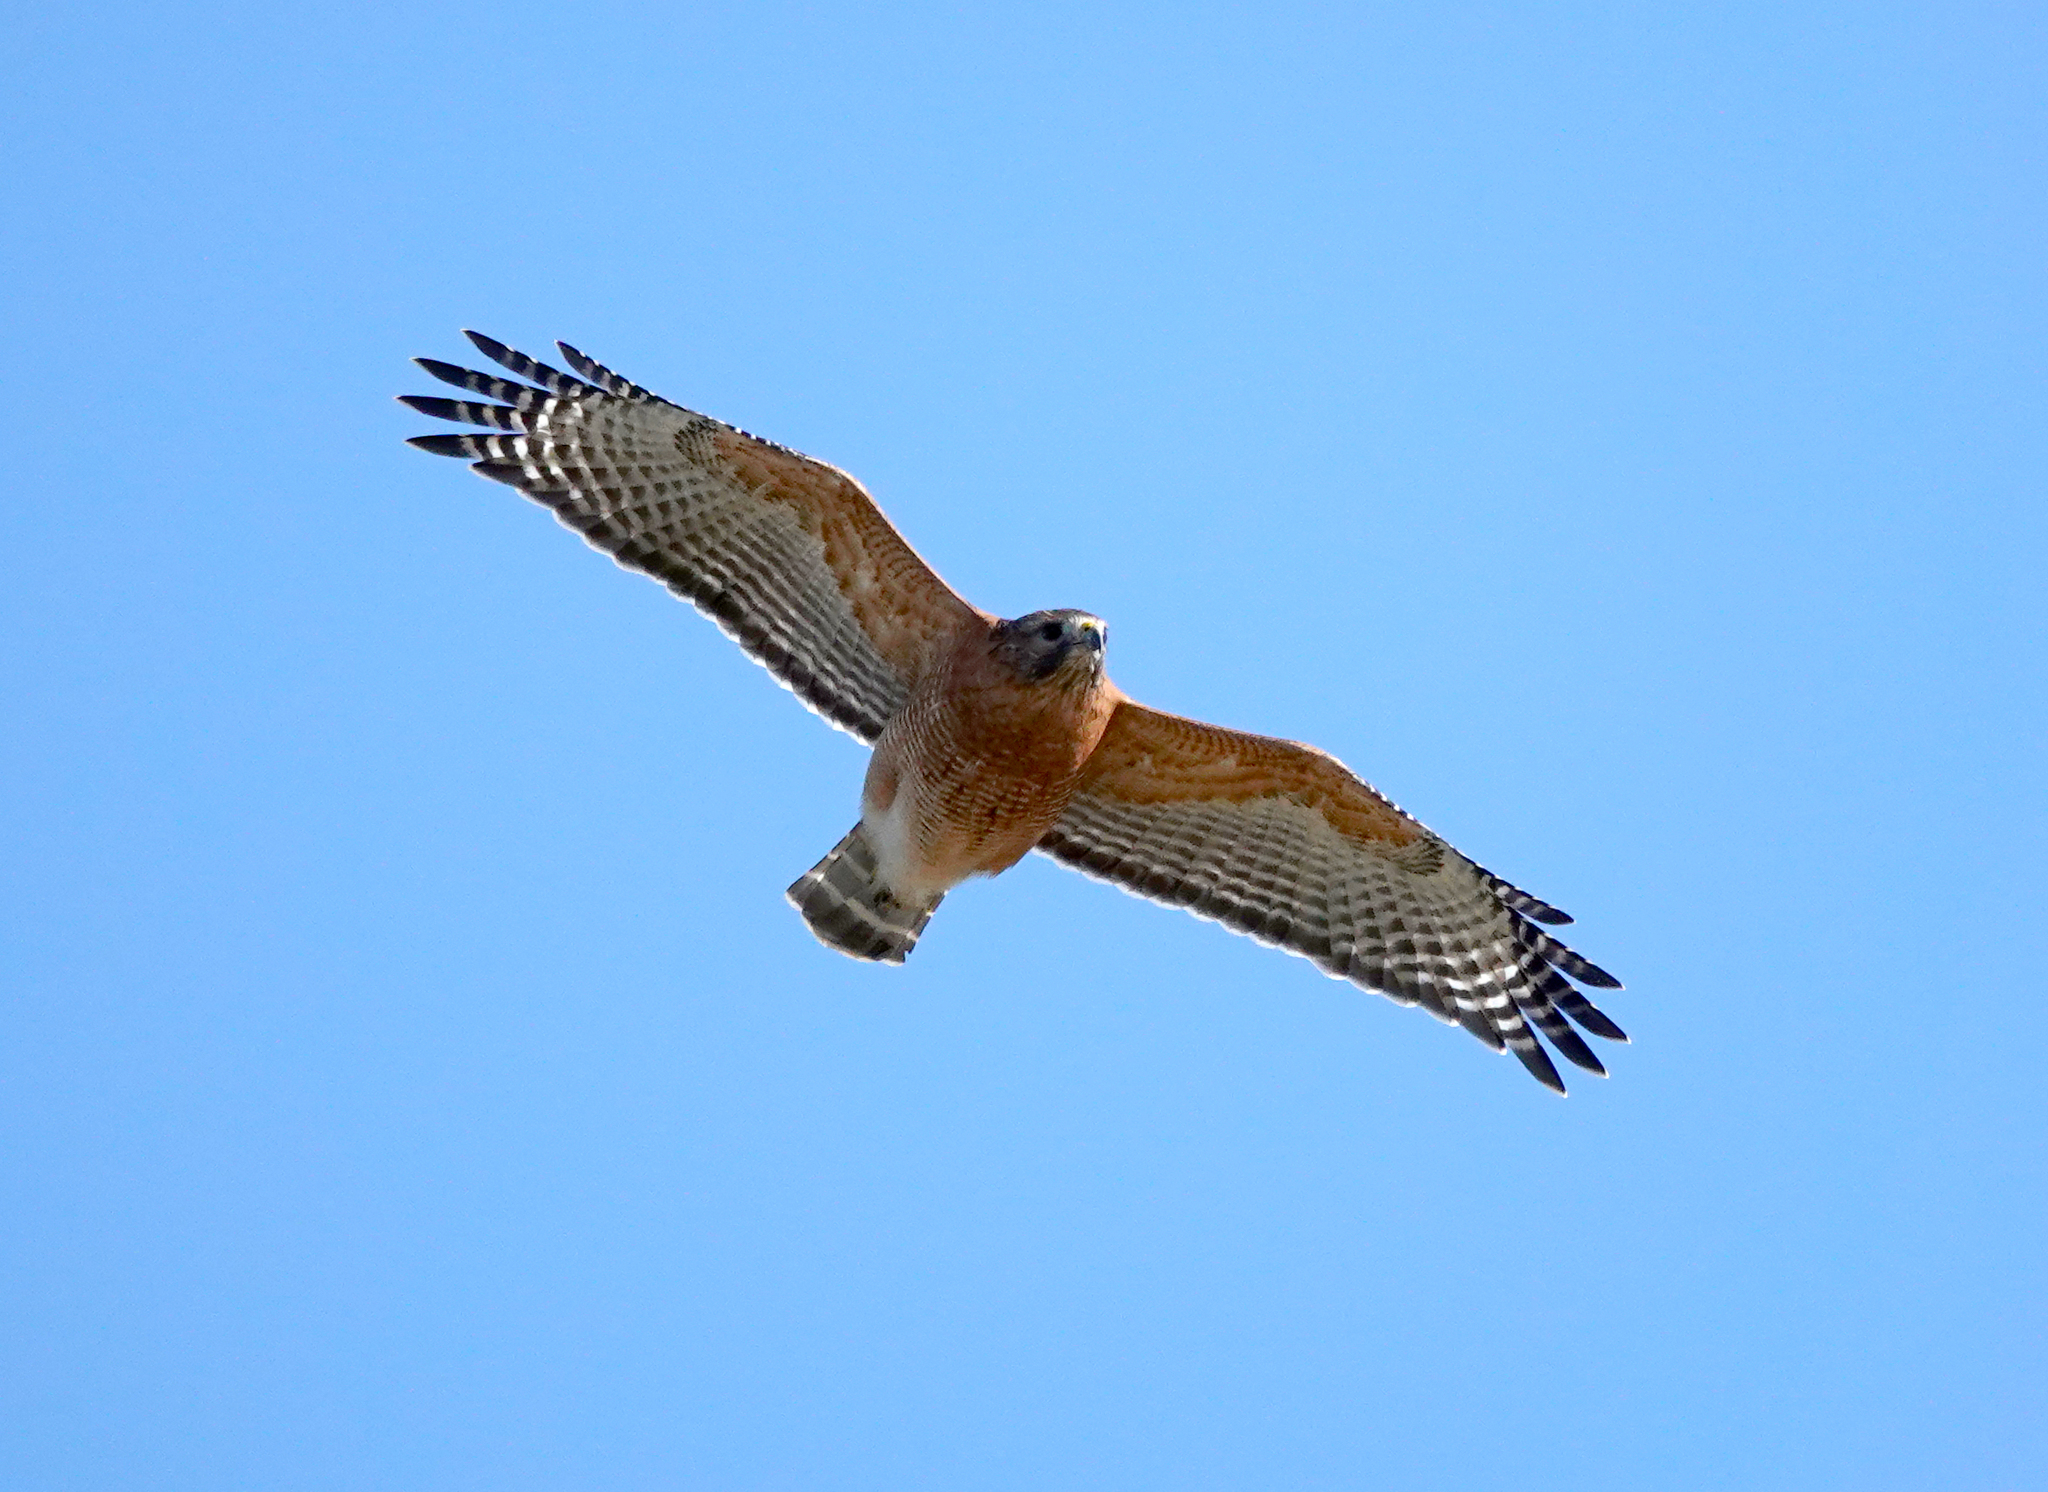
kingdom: Animalia
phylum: Chordata
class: Aves
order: Accipitriformes
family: Accipitridae
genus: Buteo
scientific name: Buteo lineatus
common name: Red-shouldered hawk
